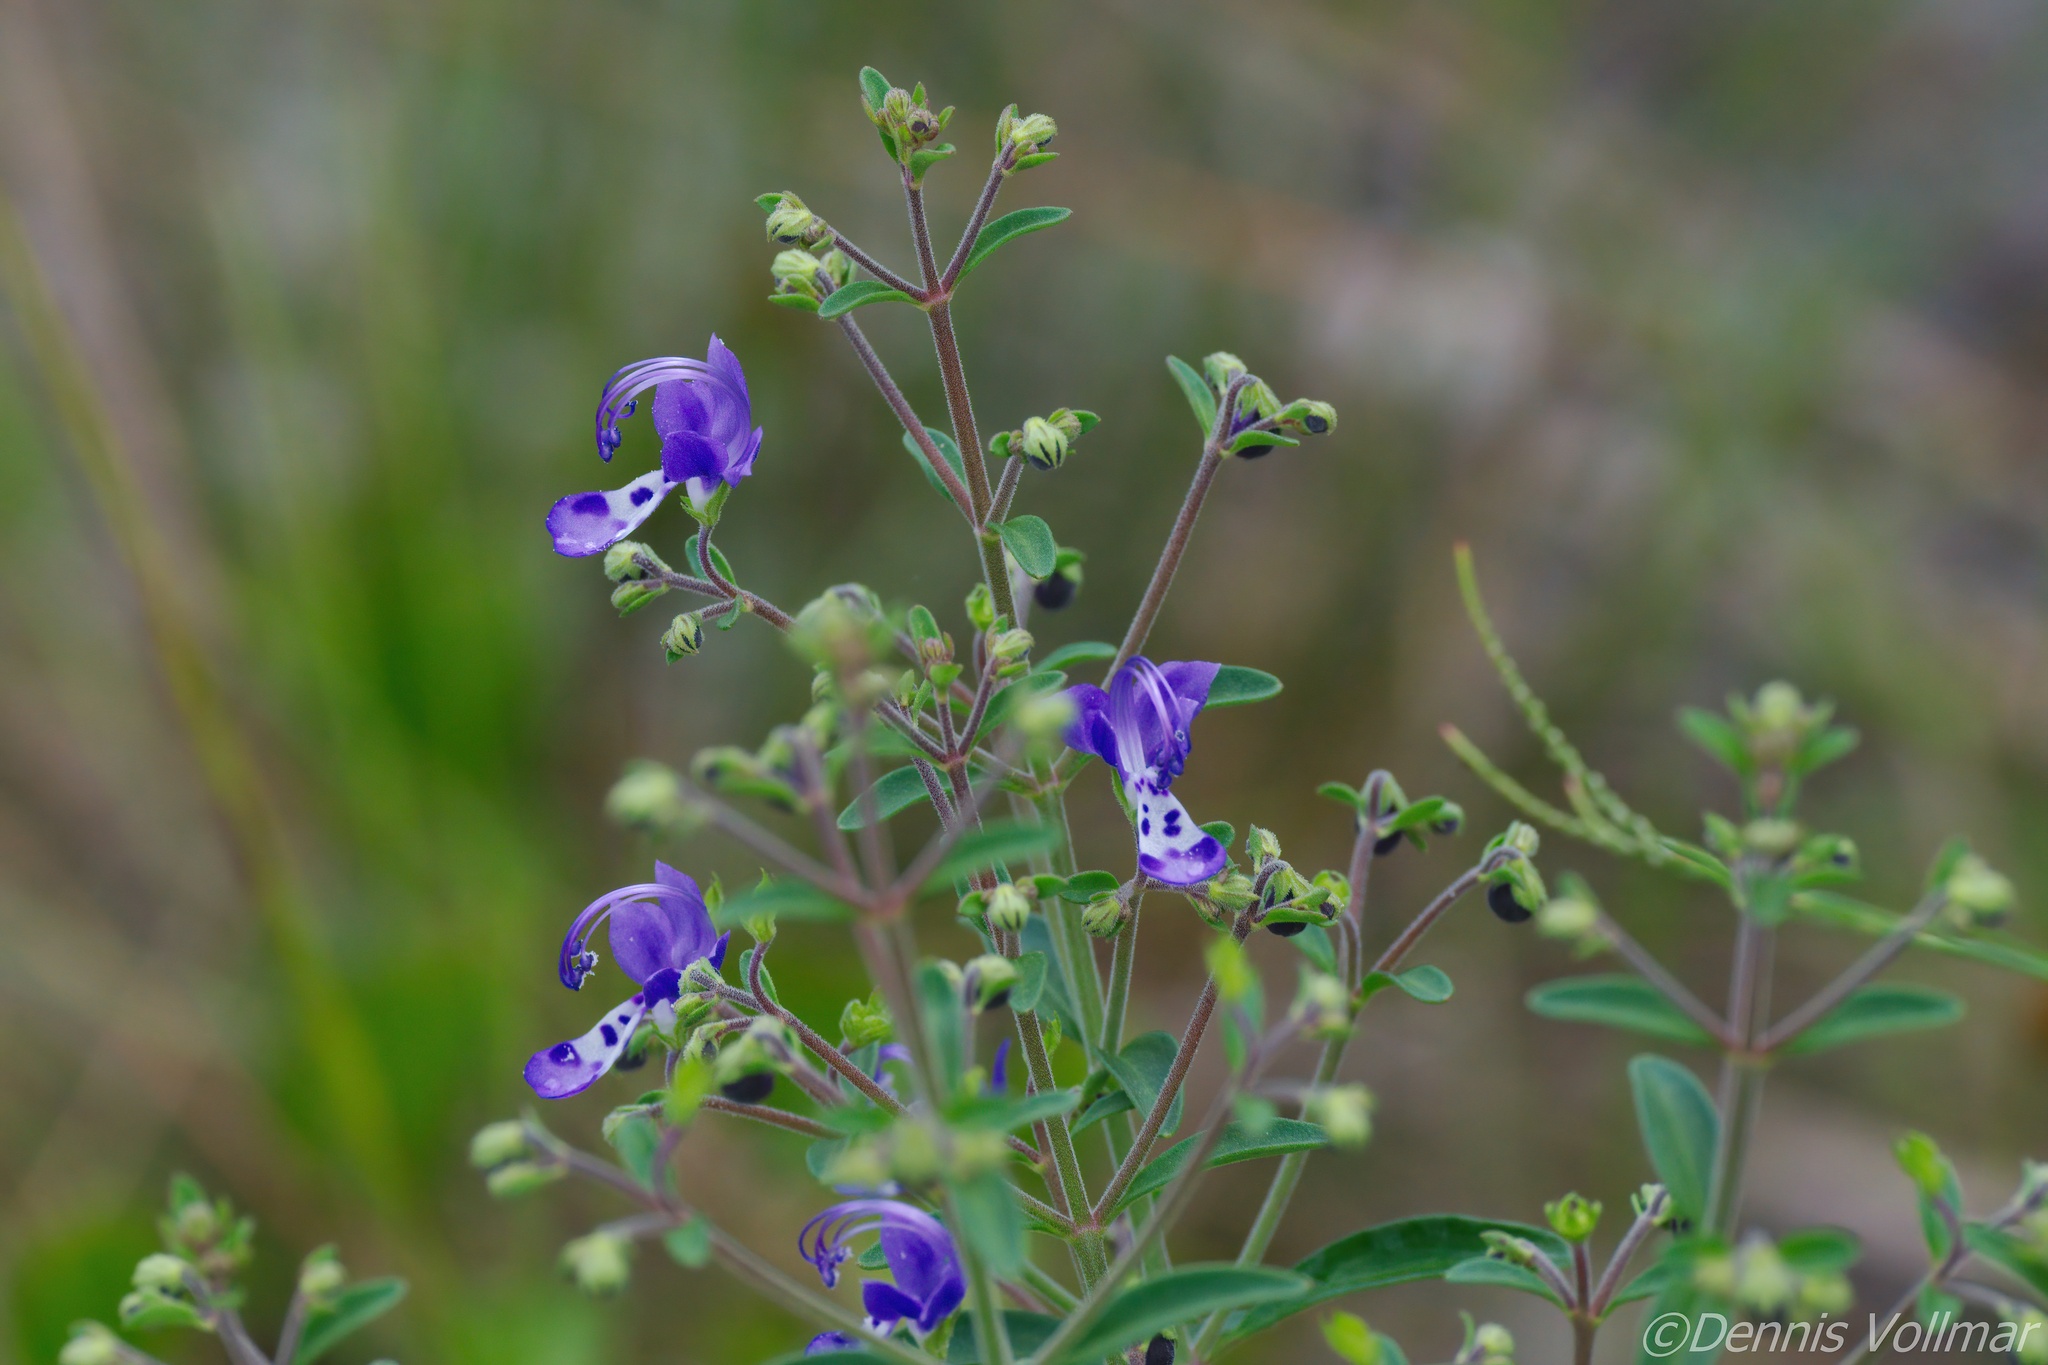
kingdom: Plantae
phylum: Tracheophyta
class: Magnoliopsida
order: Lamiales
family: Lamiaceae
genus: Trichostema
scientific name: Trichostema gracile
